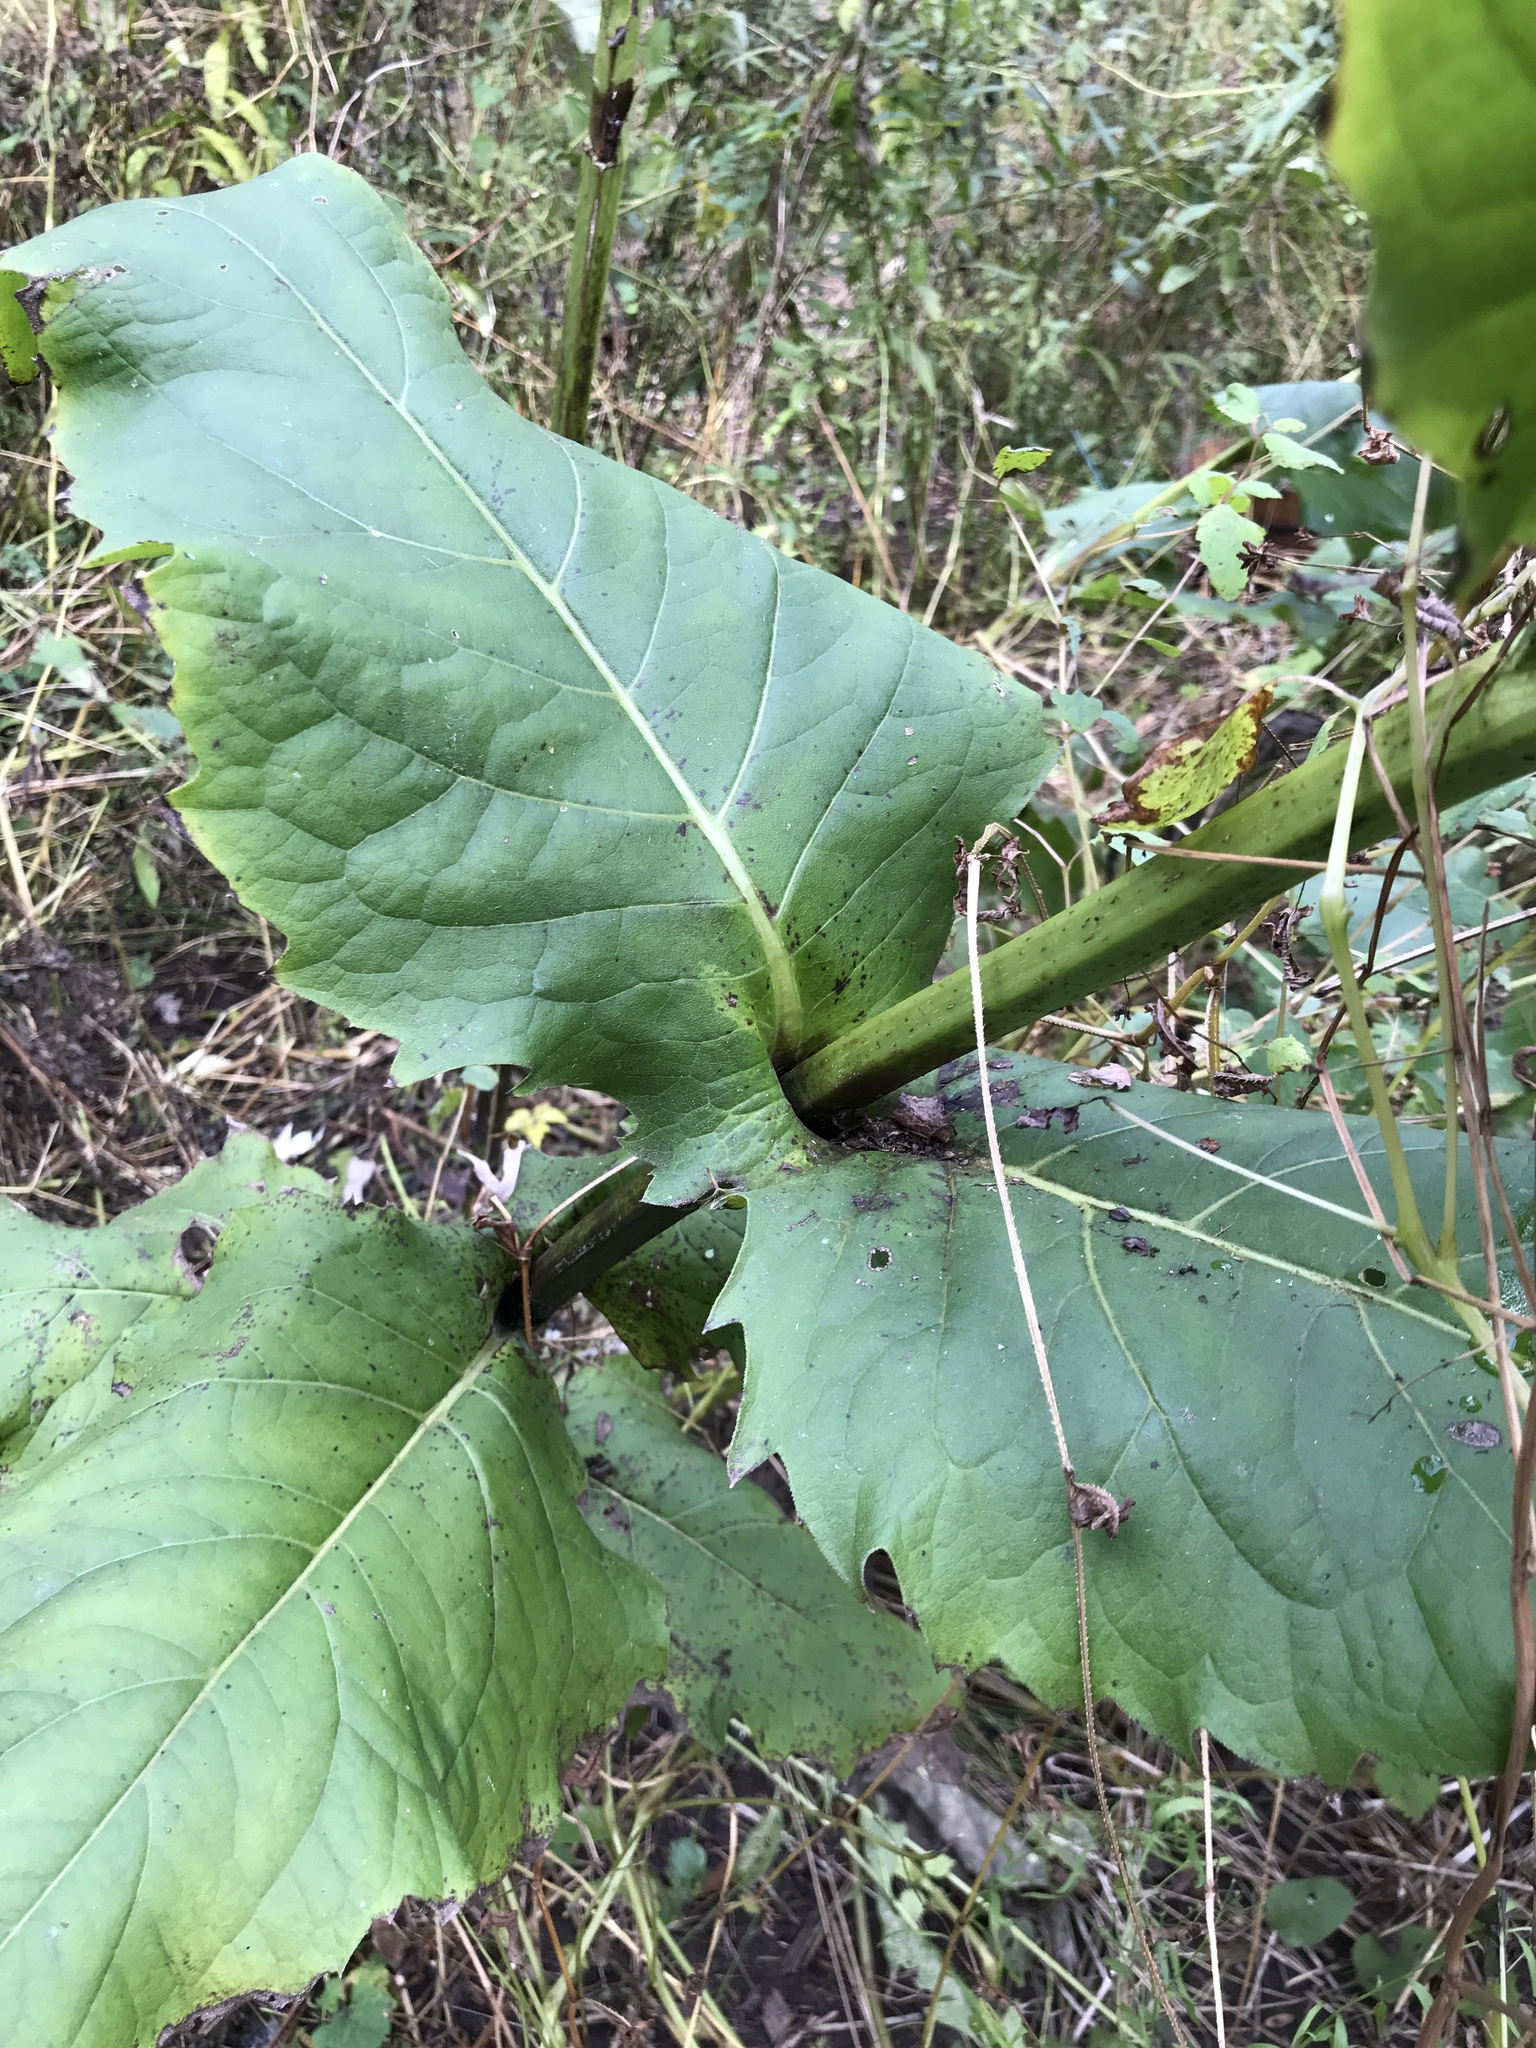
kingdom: Plantae
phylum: Tracheophyta
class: Magnoliopsida
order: Asterales
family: Asteraceae
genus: Silphium
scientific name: Silphium perfoliatum
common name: Cup-plant
